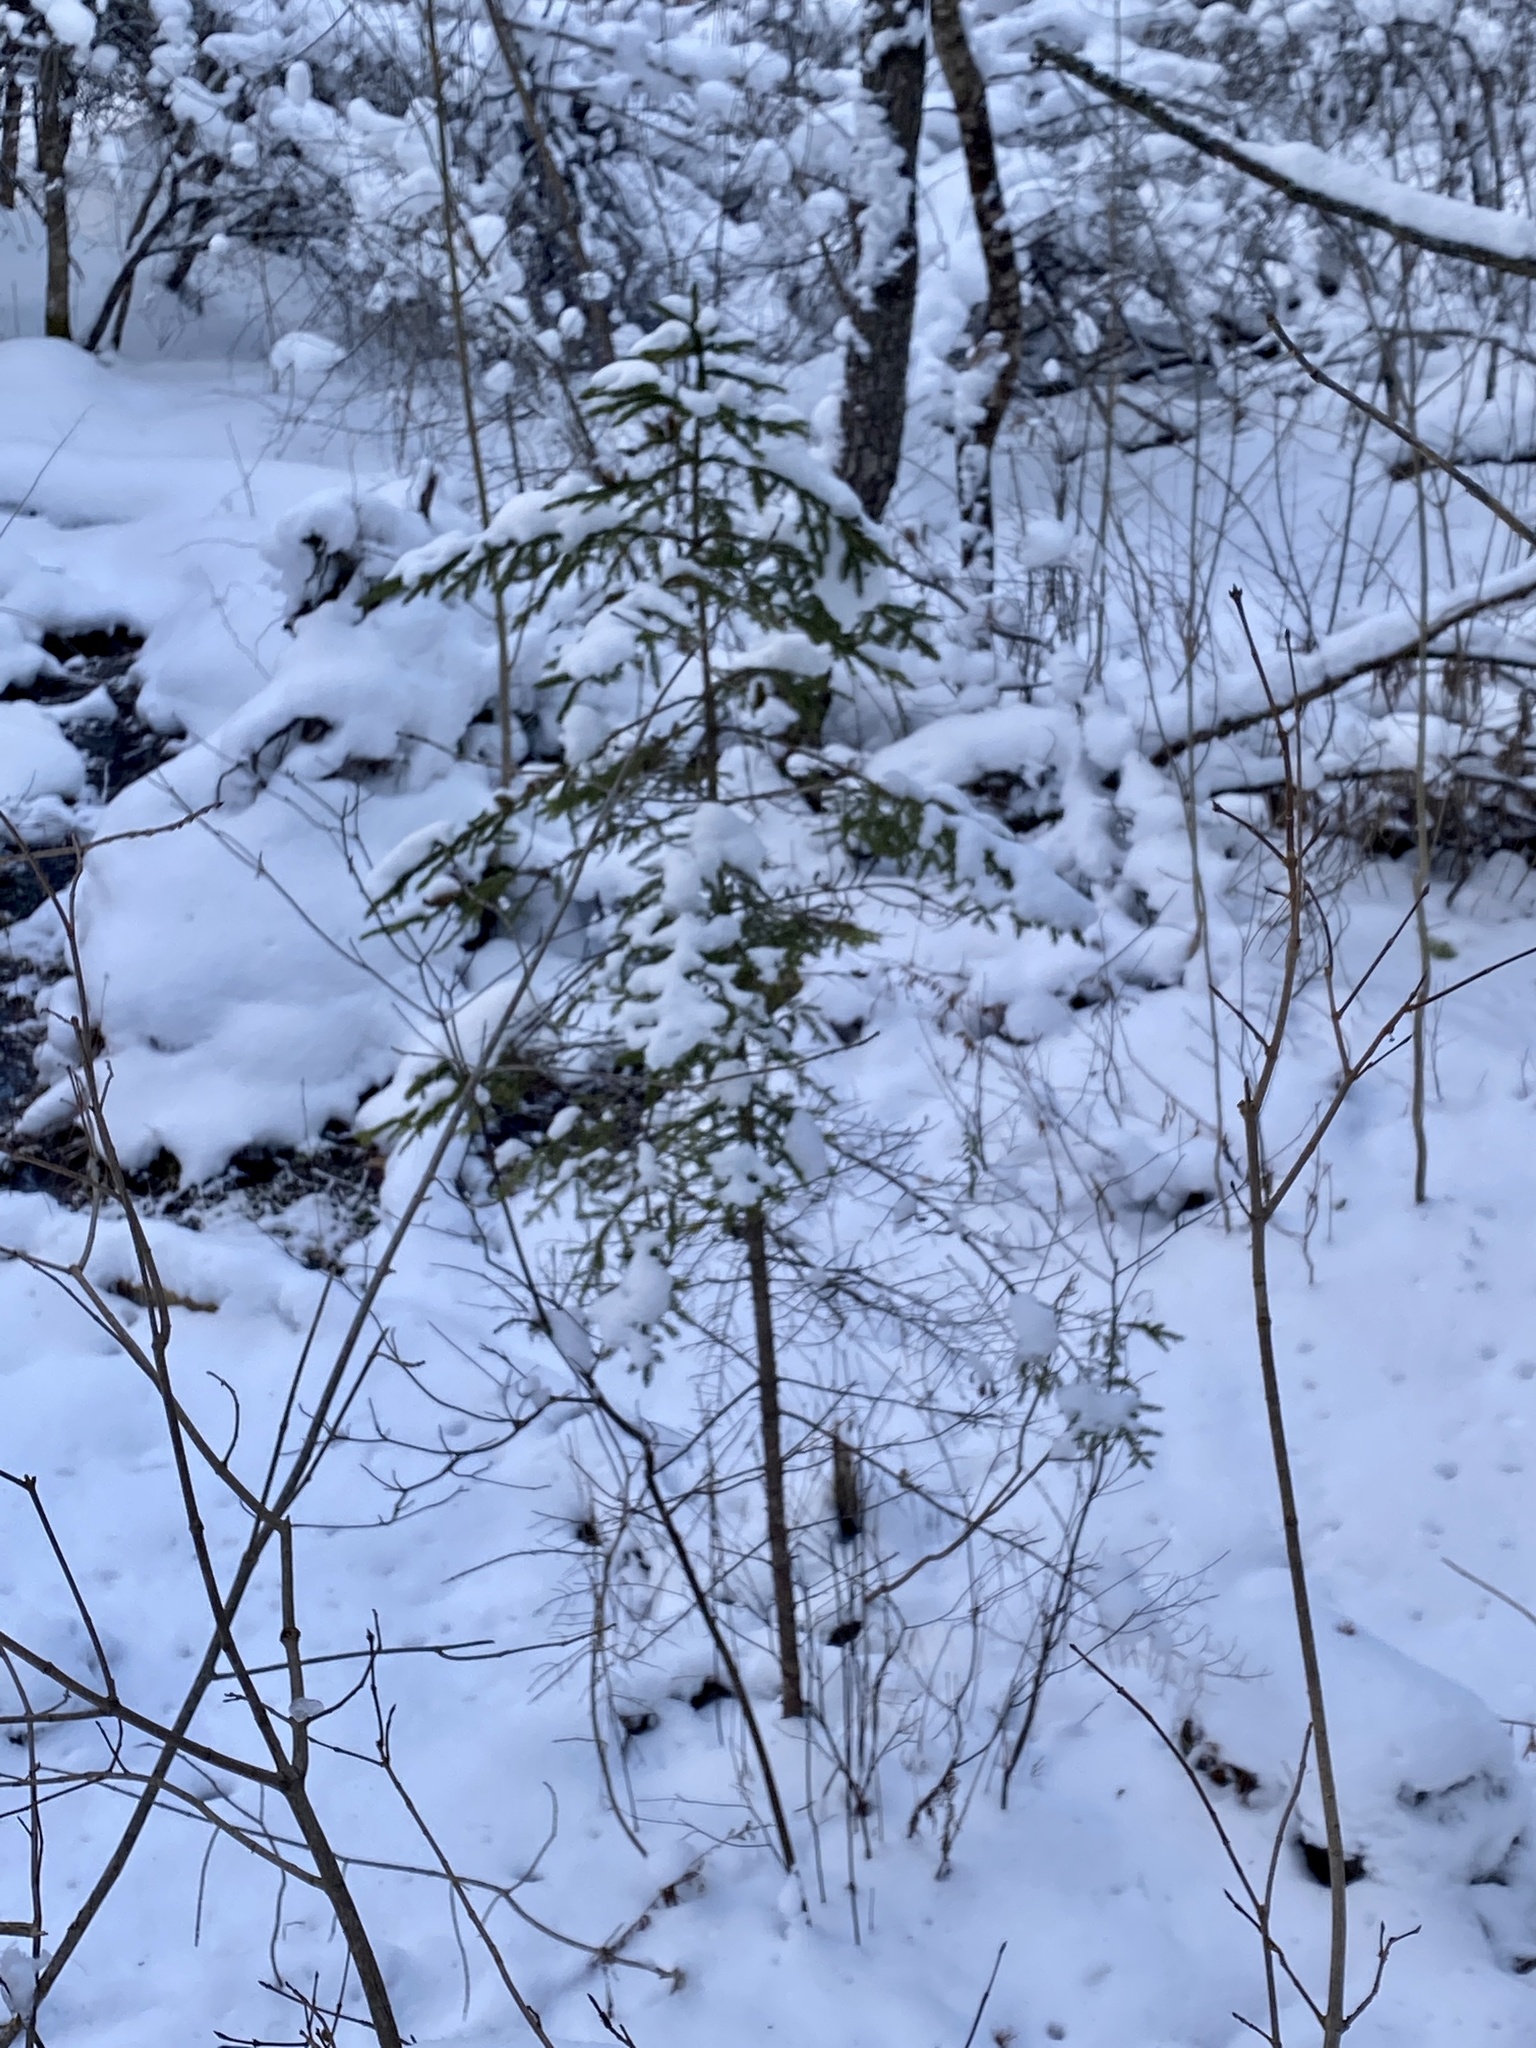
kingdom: Plantae
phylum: Tracheophyta
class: Pinopsida
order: Pinales
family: Pinaceae
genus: Picea
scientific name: Picea rubens
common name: Red spruce
